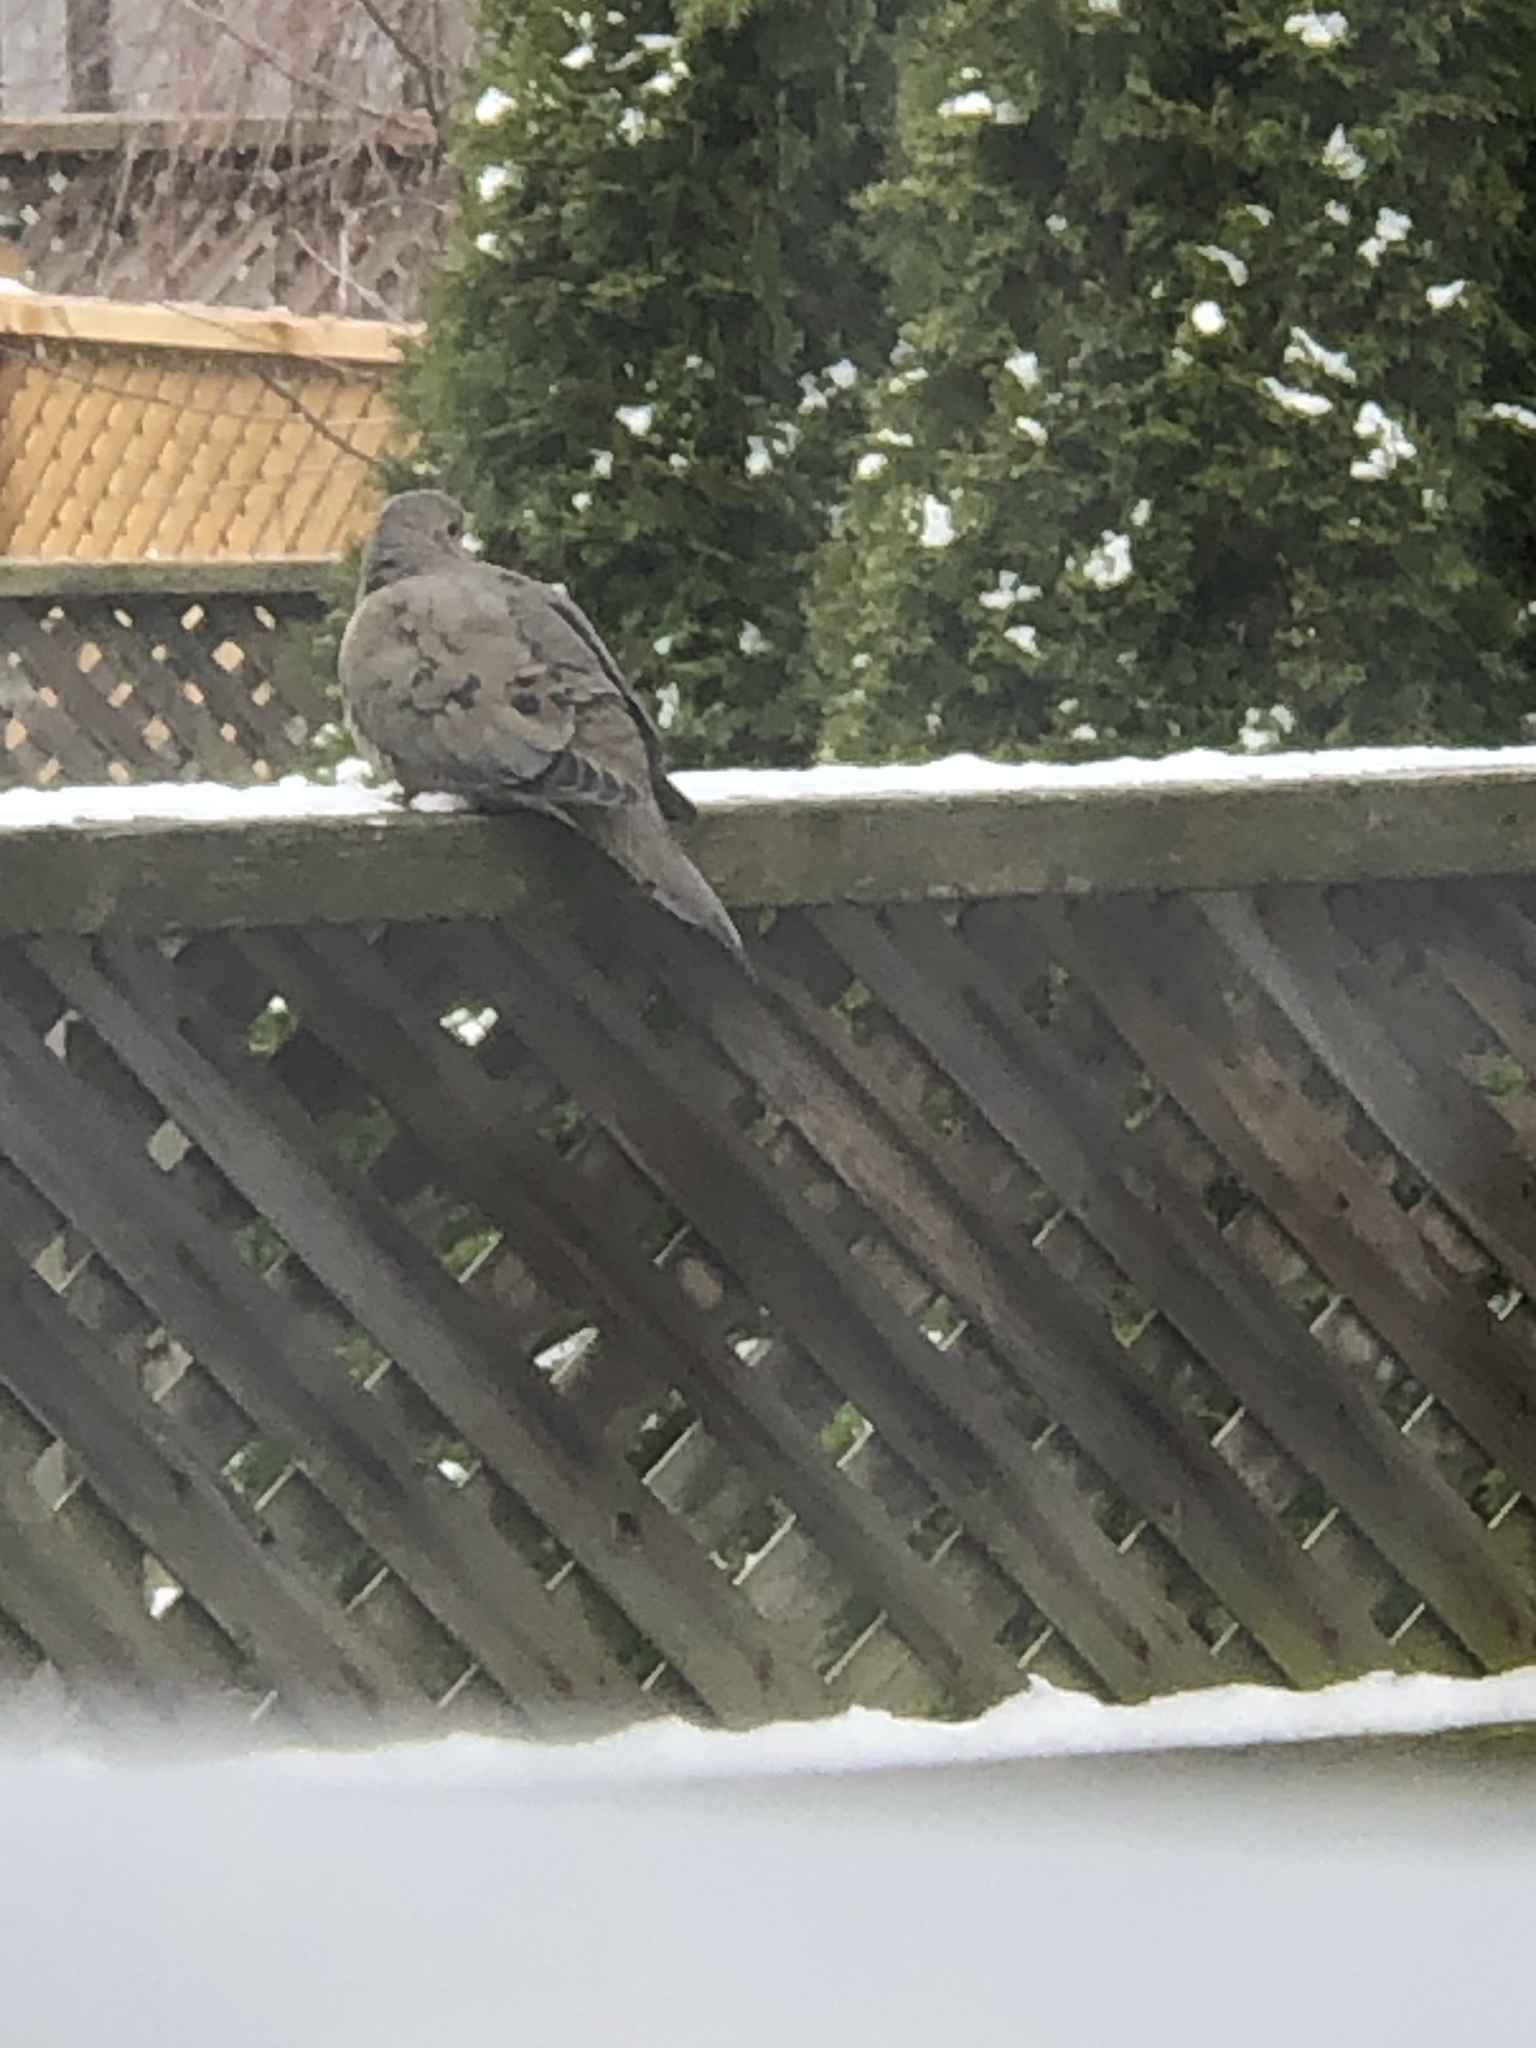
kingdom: Animalia
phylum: Chordata
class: Aves
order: Columbiformes
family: Columbidae
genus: Zenaida
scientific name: Zenaida macroura
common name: Mourning dove
